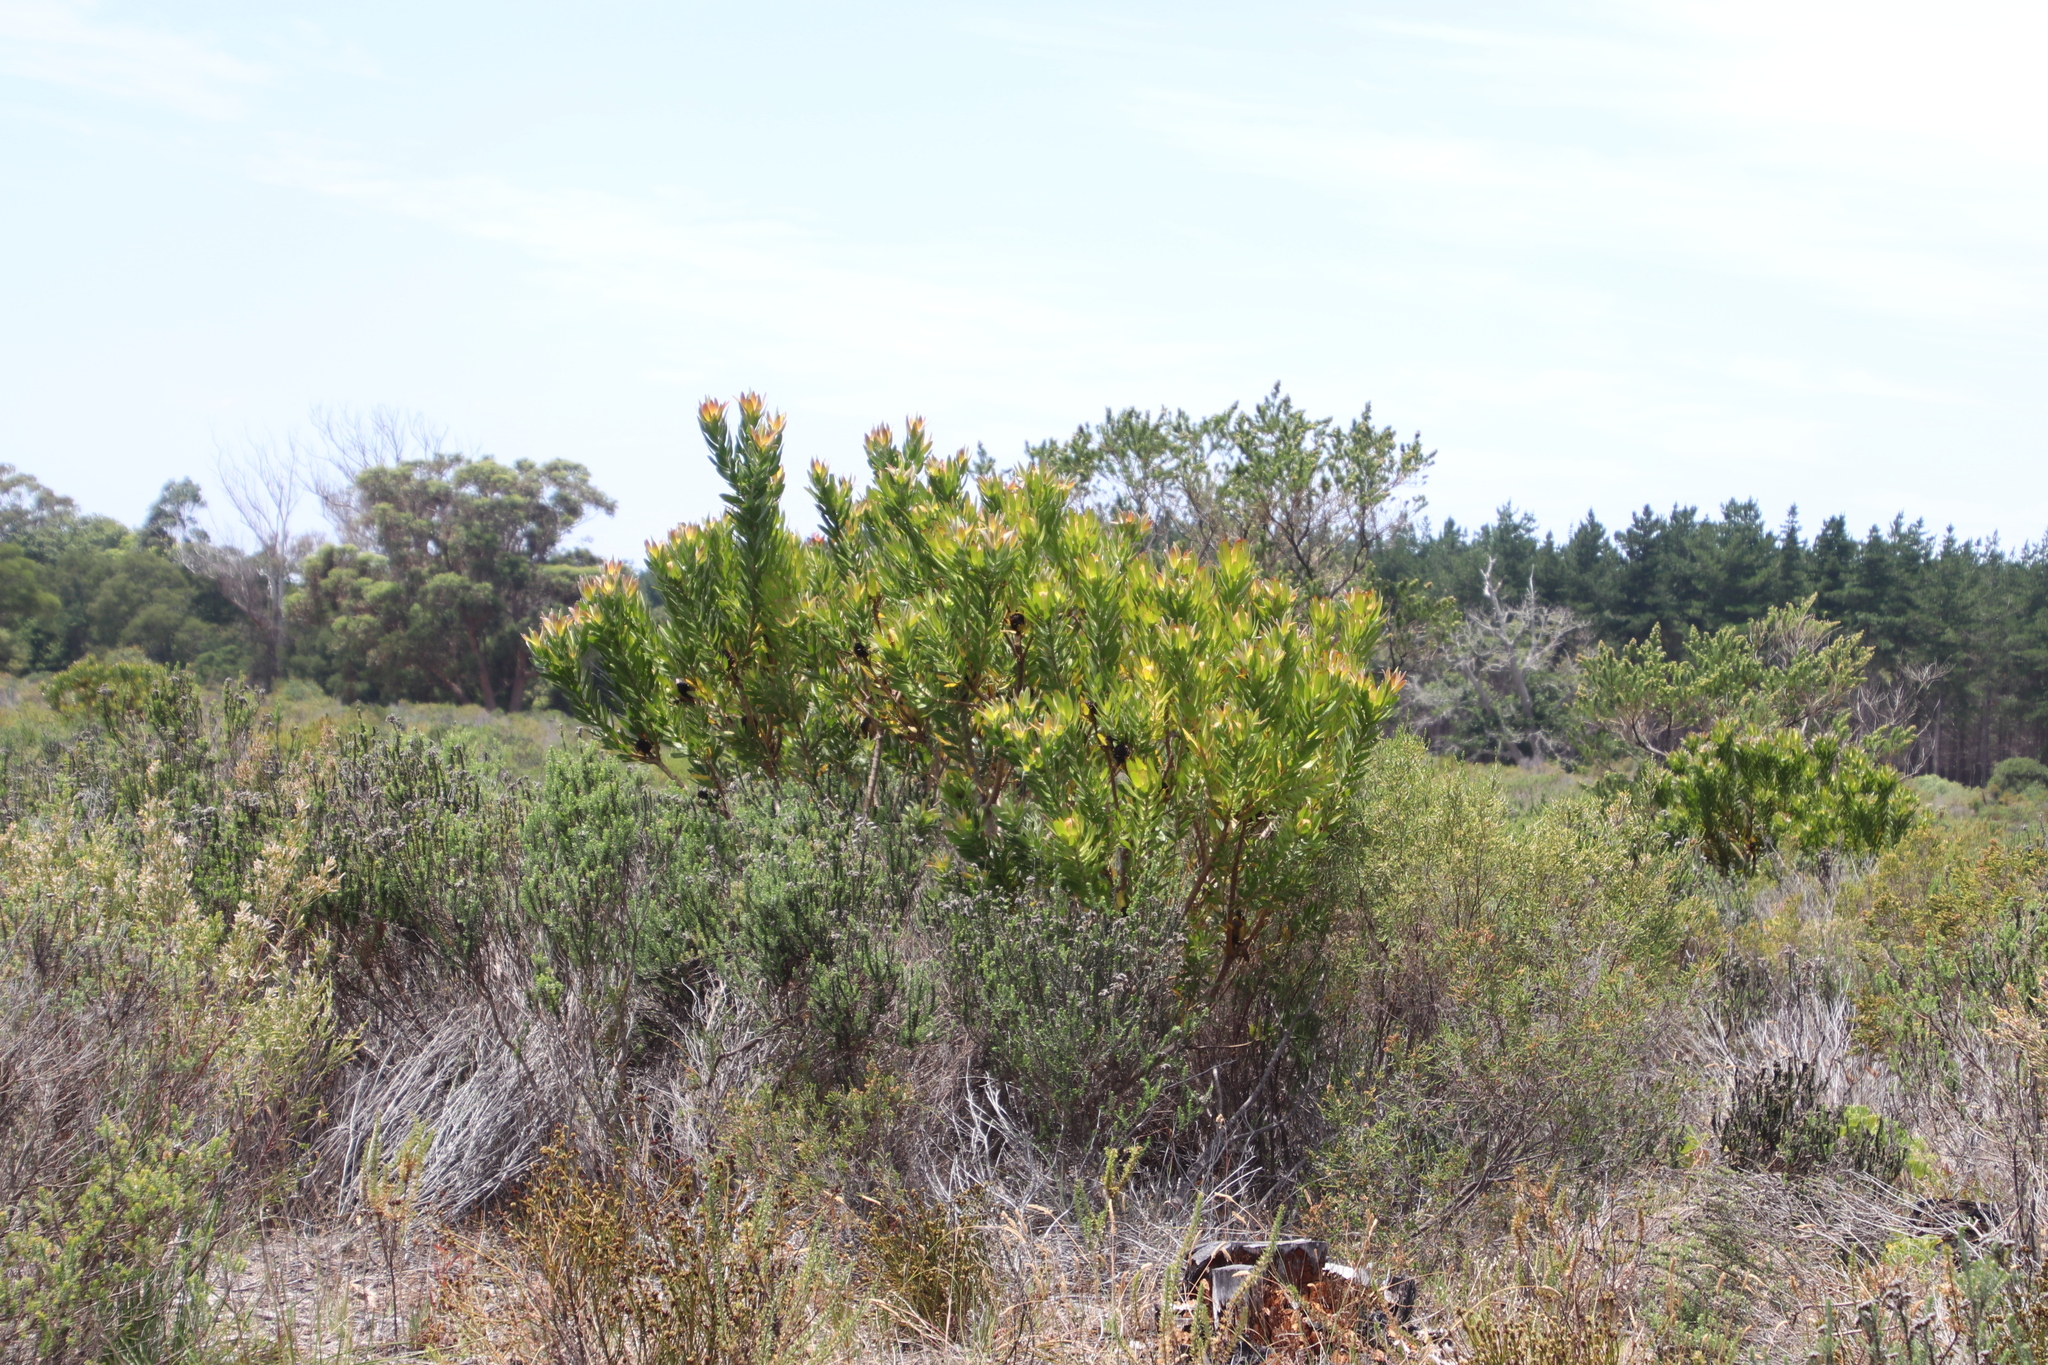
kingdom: Plantae
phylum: Tracheophyta
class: Magnoliopsida
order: Proteales
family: Proteaceae
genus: Leucadendron
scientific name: Leucadendron laureolum
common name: Golden sunshinebush
